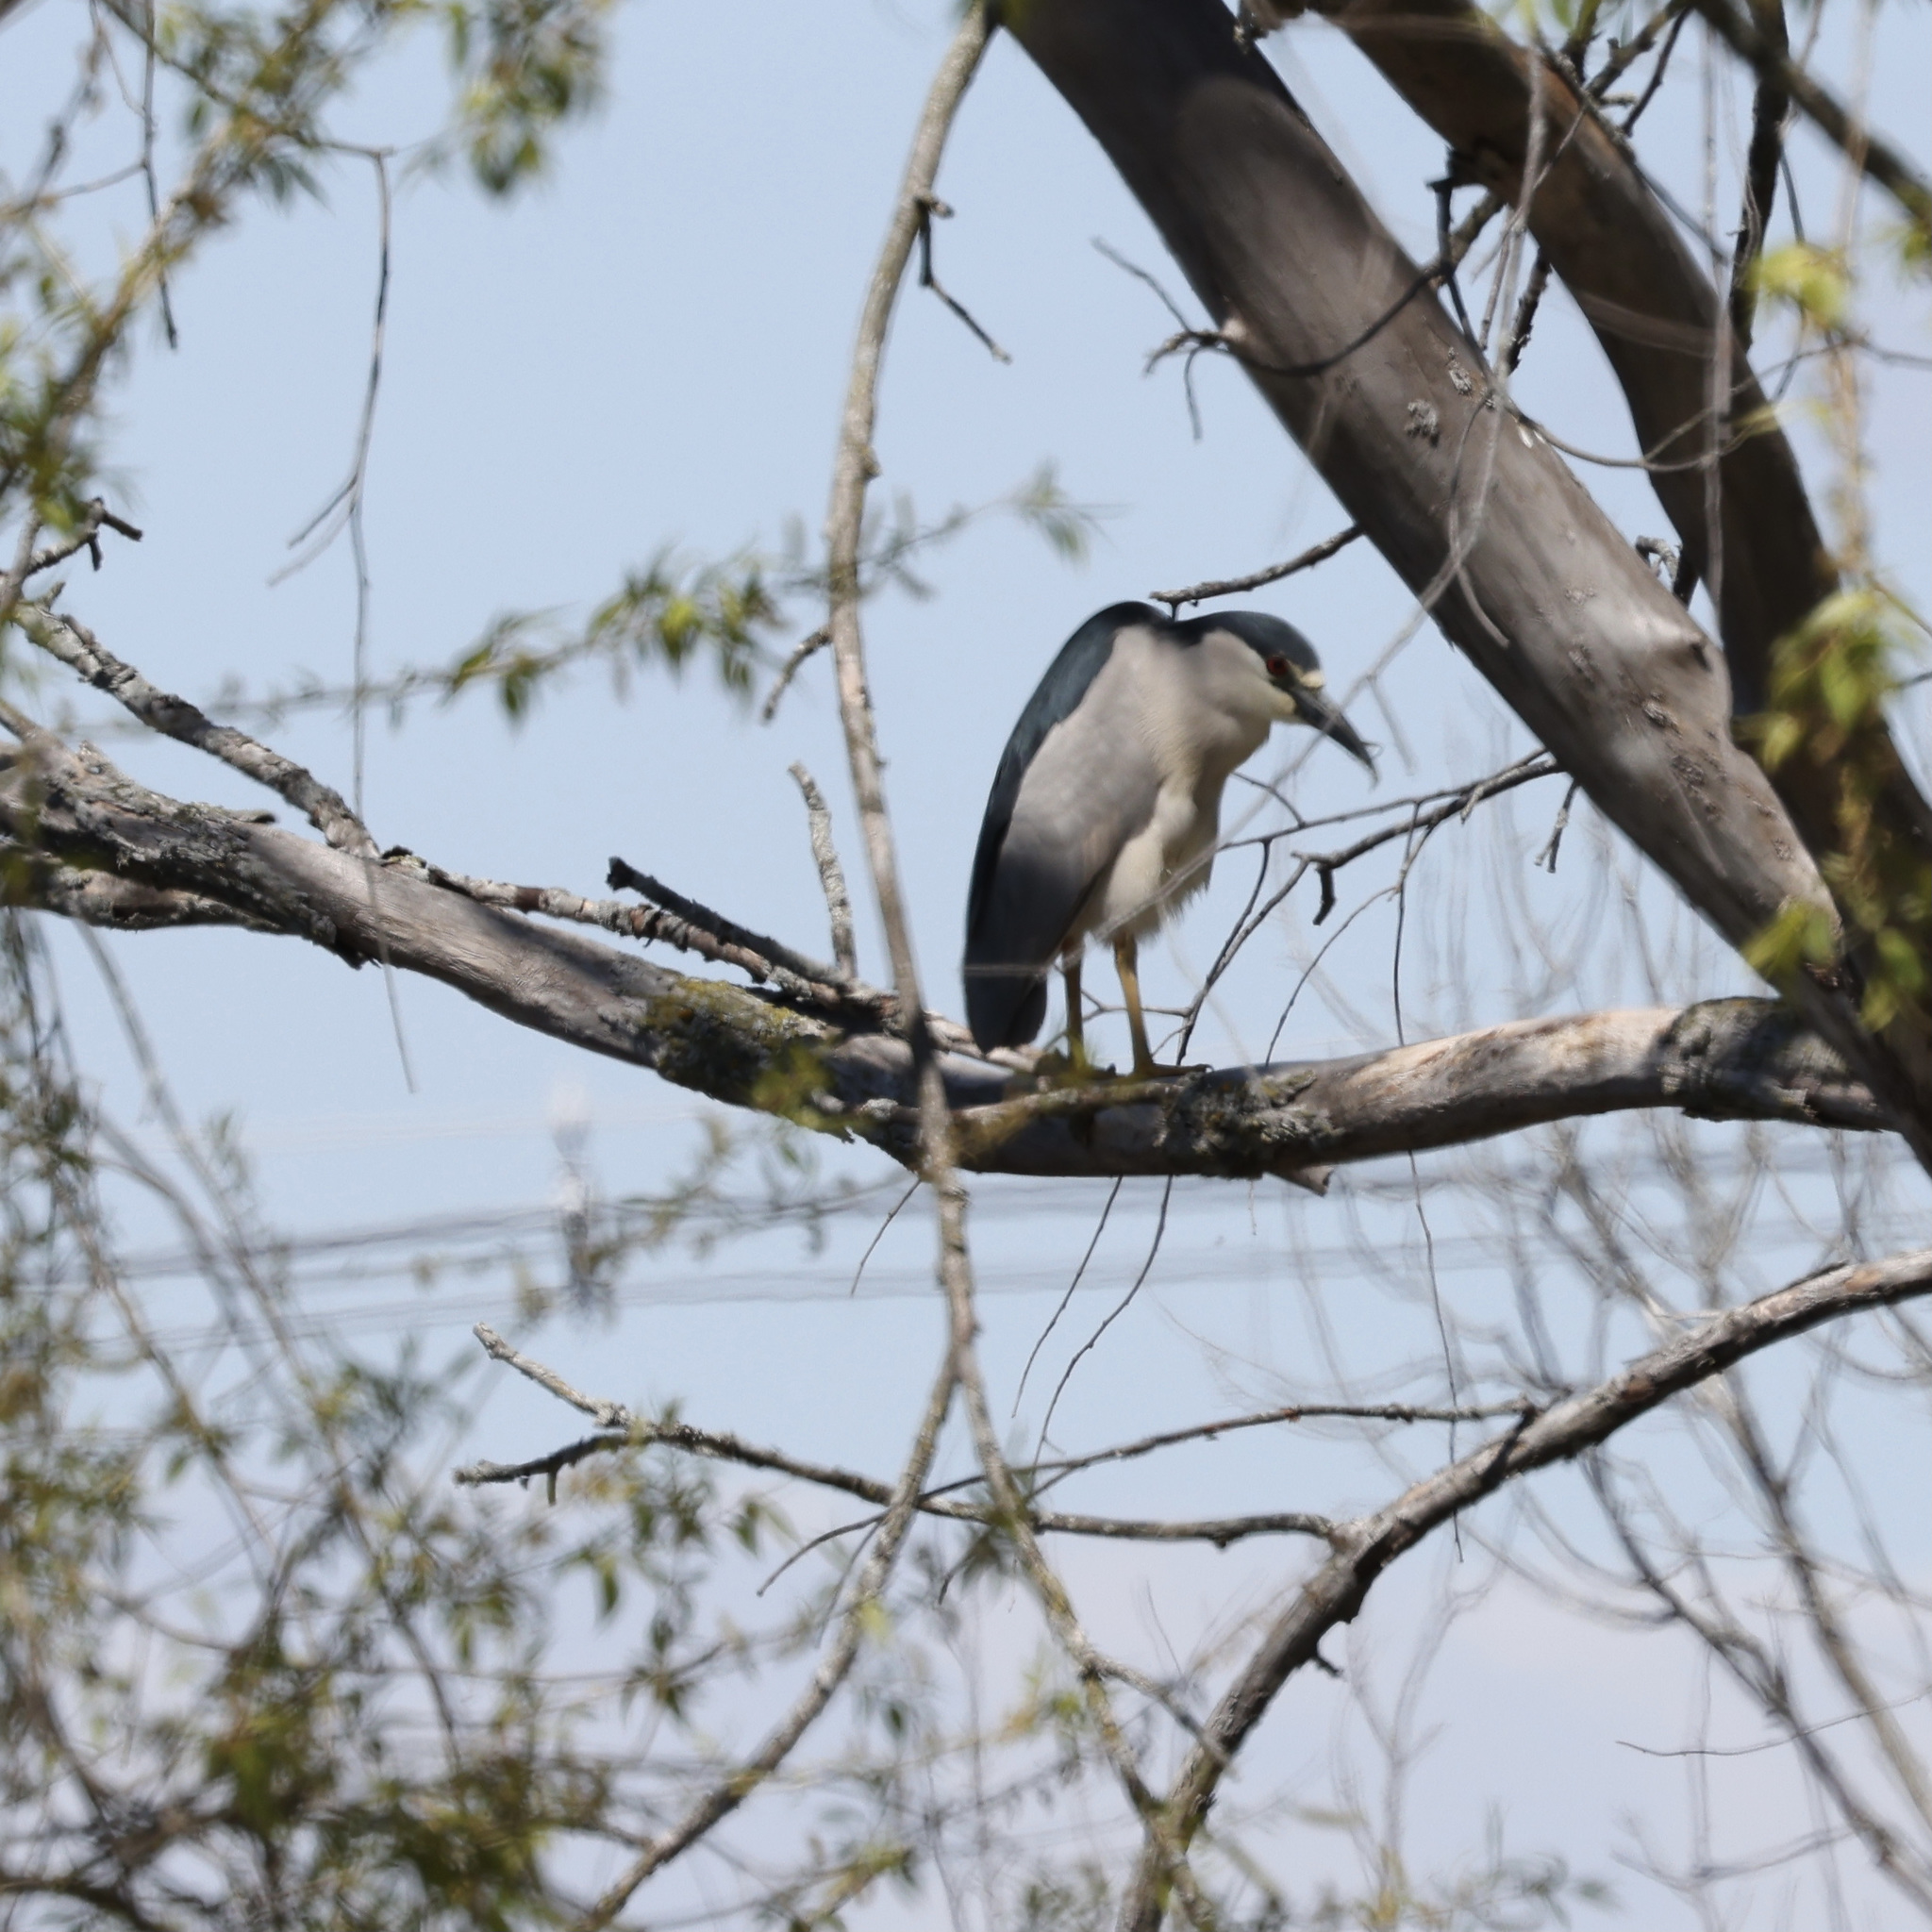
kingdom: Animalia
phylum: Chordata
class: Aves
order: Pelecaniformes
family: Ardeidae
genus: Nycticorax
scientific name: Nycticorax nycticorax
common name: Black-crowned night heron
